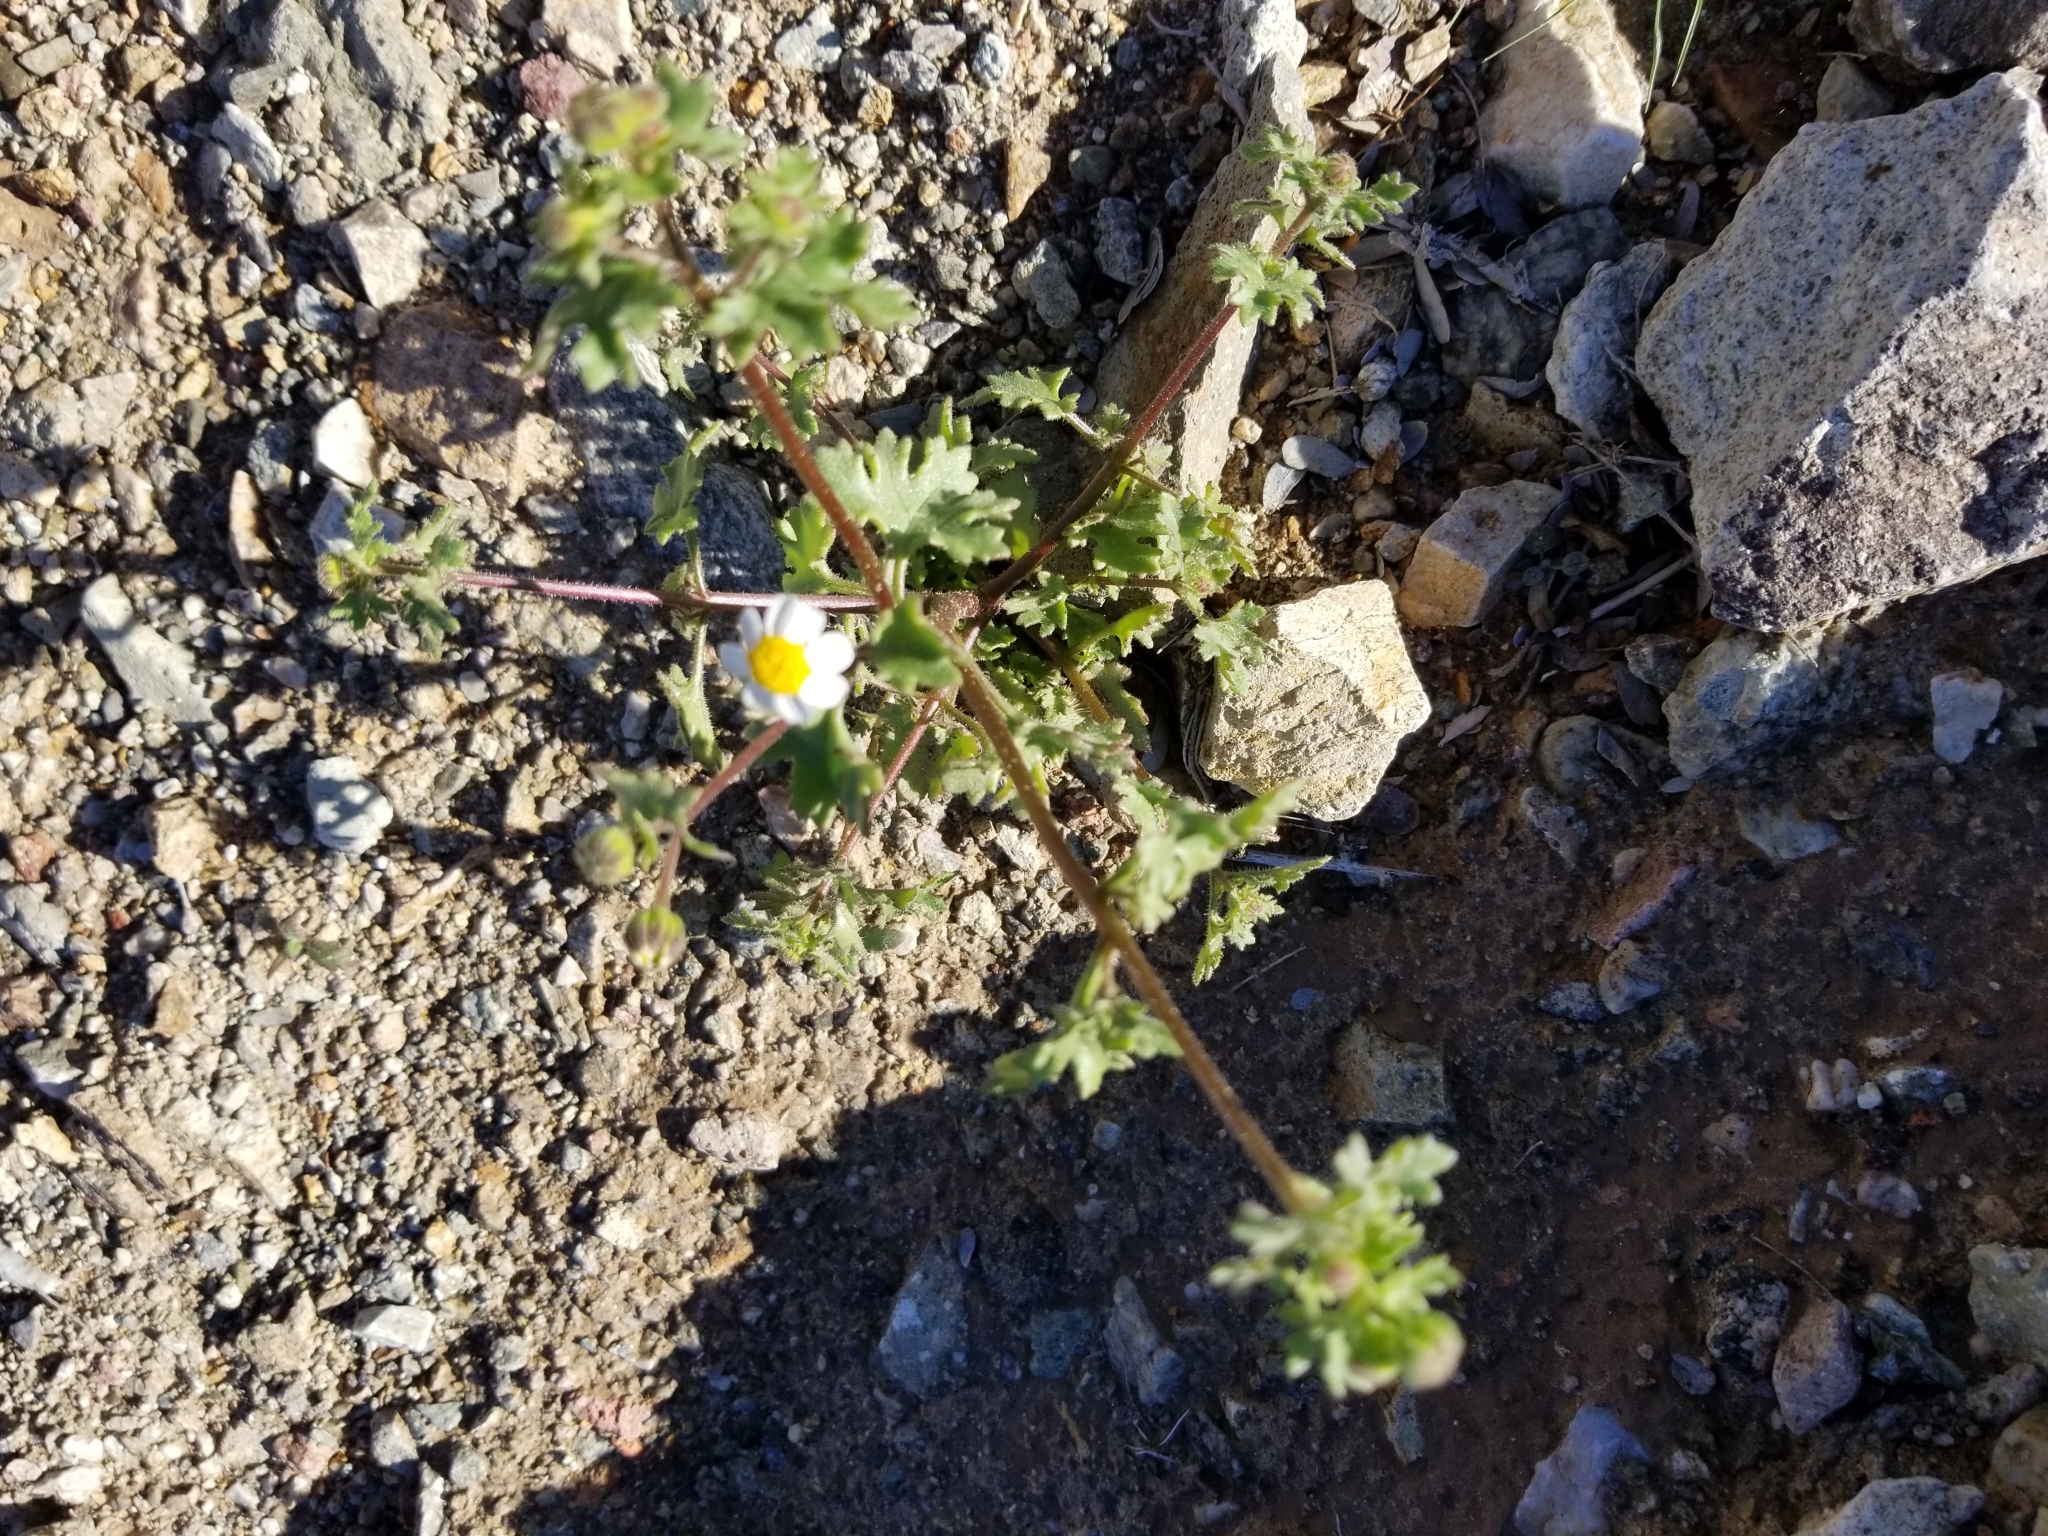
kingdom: Plantae
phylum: Tracheophyta
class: Magnoliopsida
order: Asterales
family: Asteraceae
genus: Laphamia
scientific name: Laphamia emoryi
